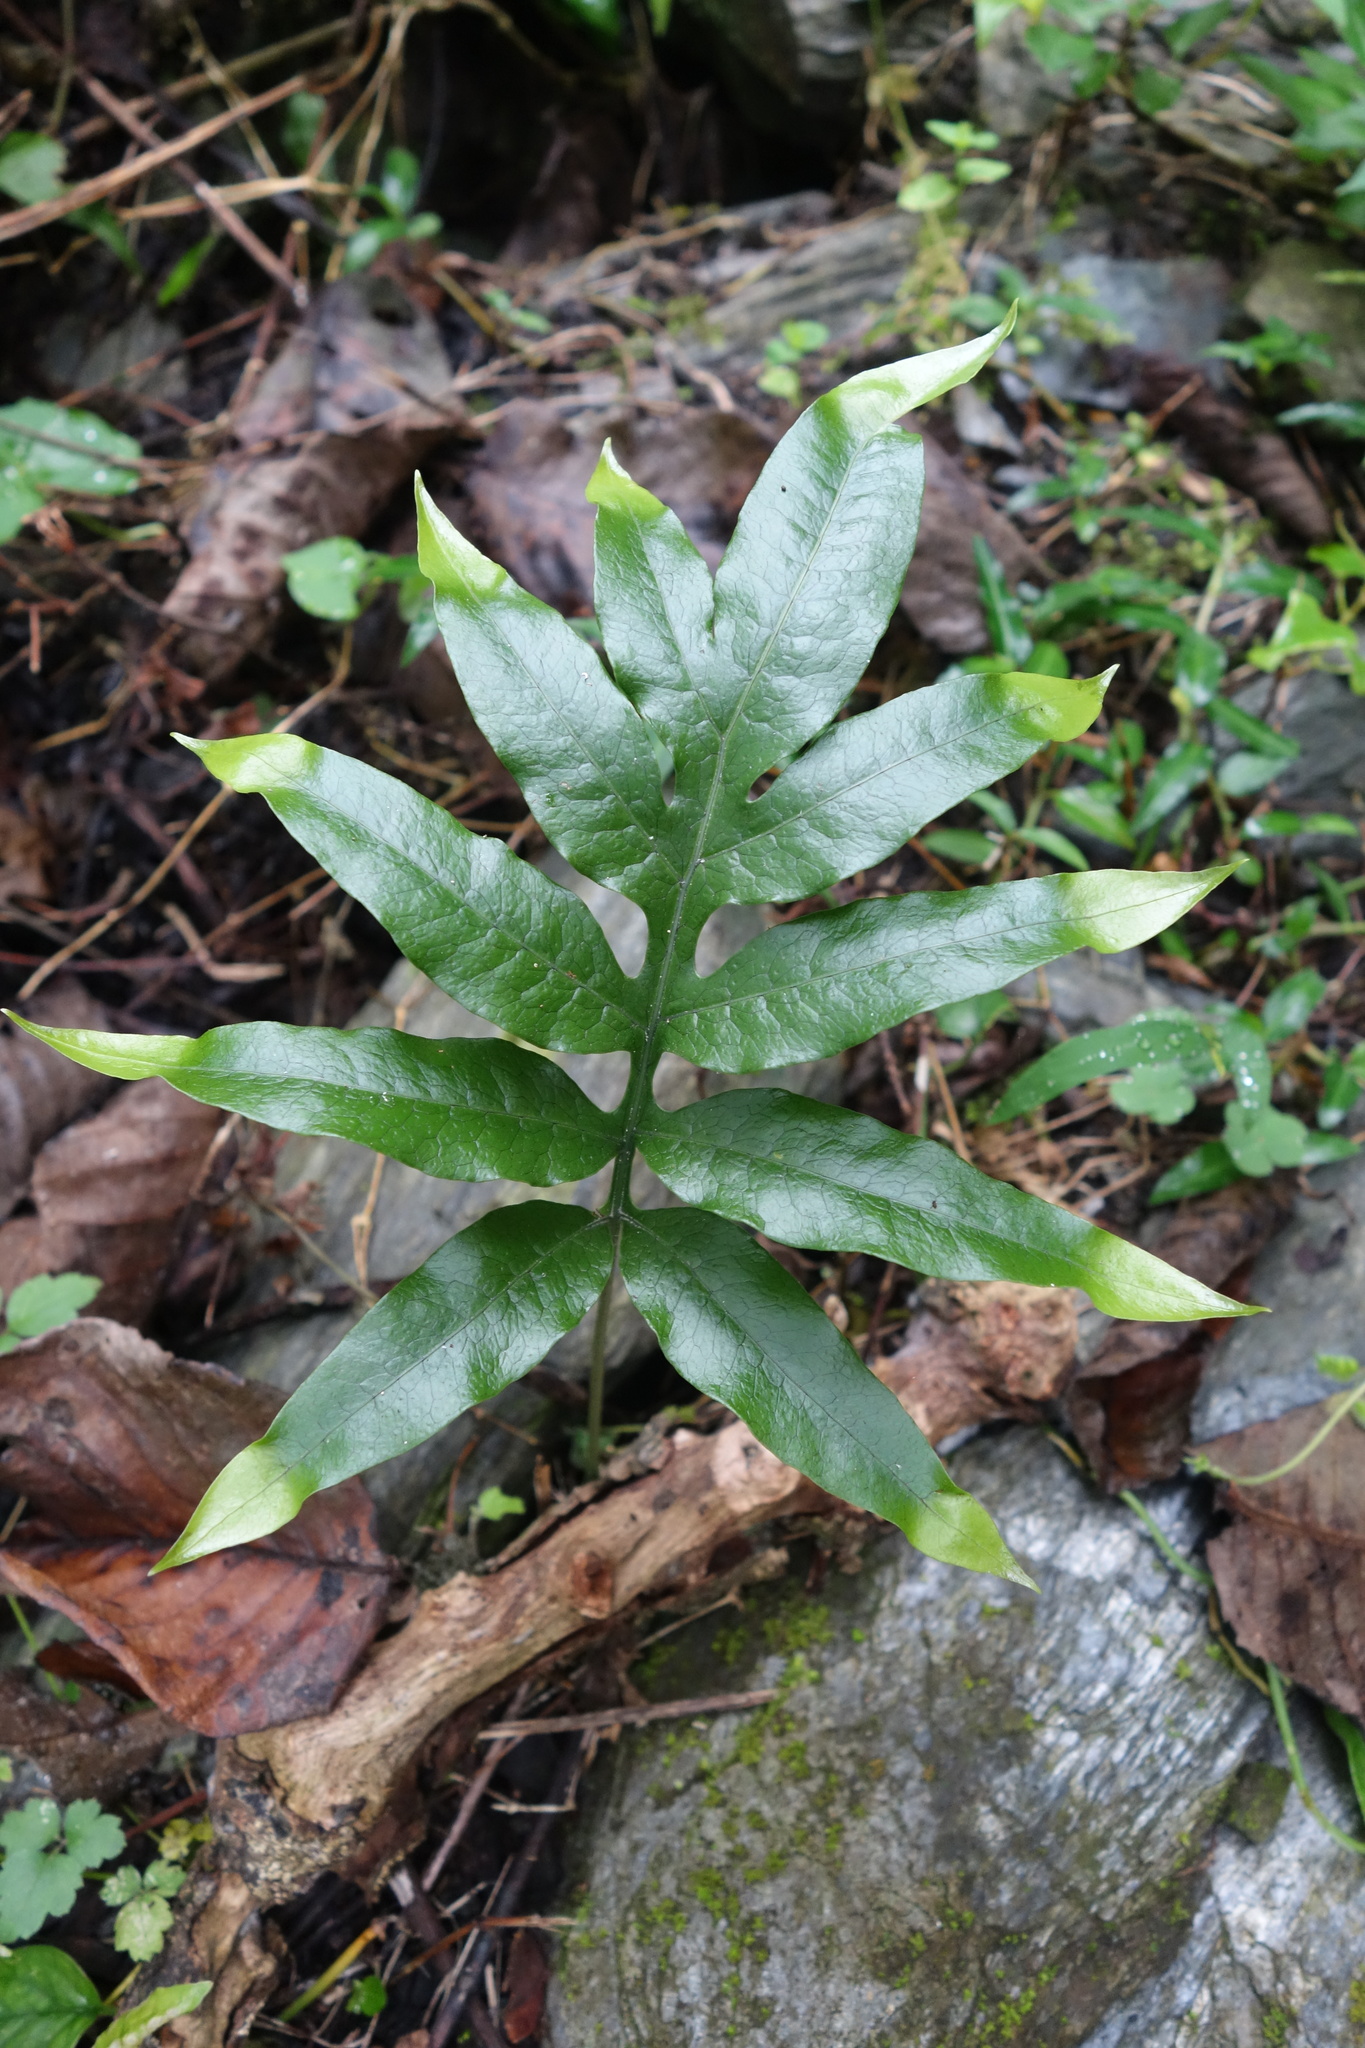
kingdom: Plantae
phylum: Tracheophyta
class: Polypodiopsida
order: Polypodiales
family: Polypodiaceae
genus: Leptochilus
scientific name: Leptochilus ellipticus
